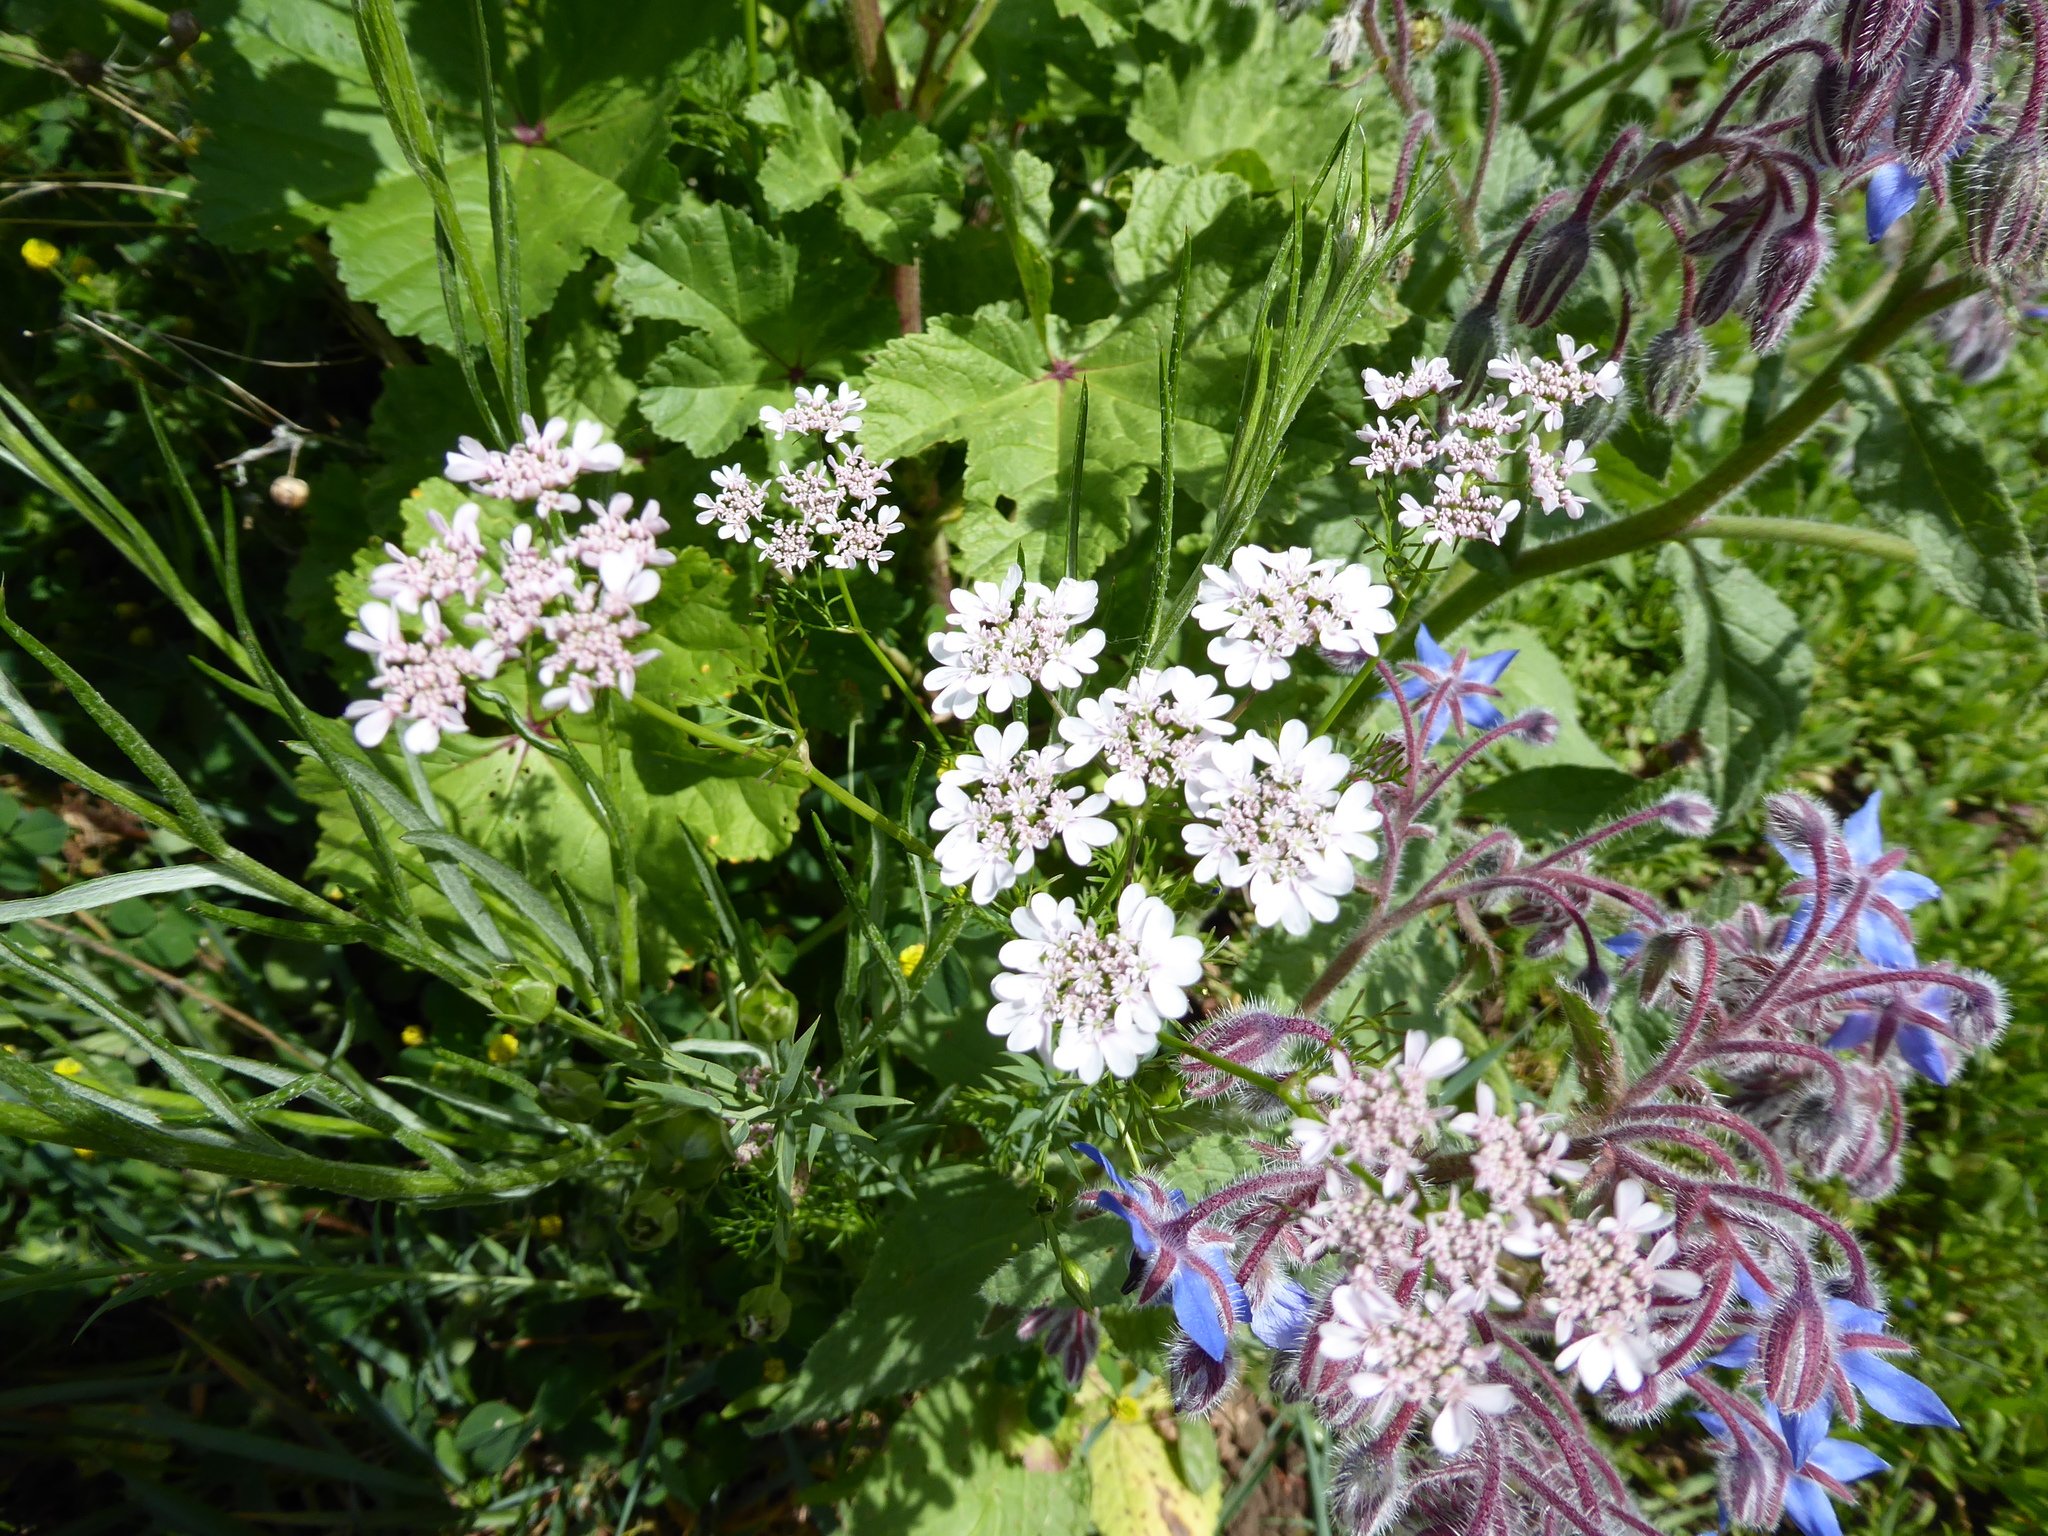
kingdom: Plantae
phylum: Tracheophyta
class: Magnoliopsida
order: Apiales
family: Apiaceae
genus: Coriandrum
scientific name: Coriandrum sativum
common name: Coriander
